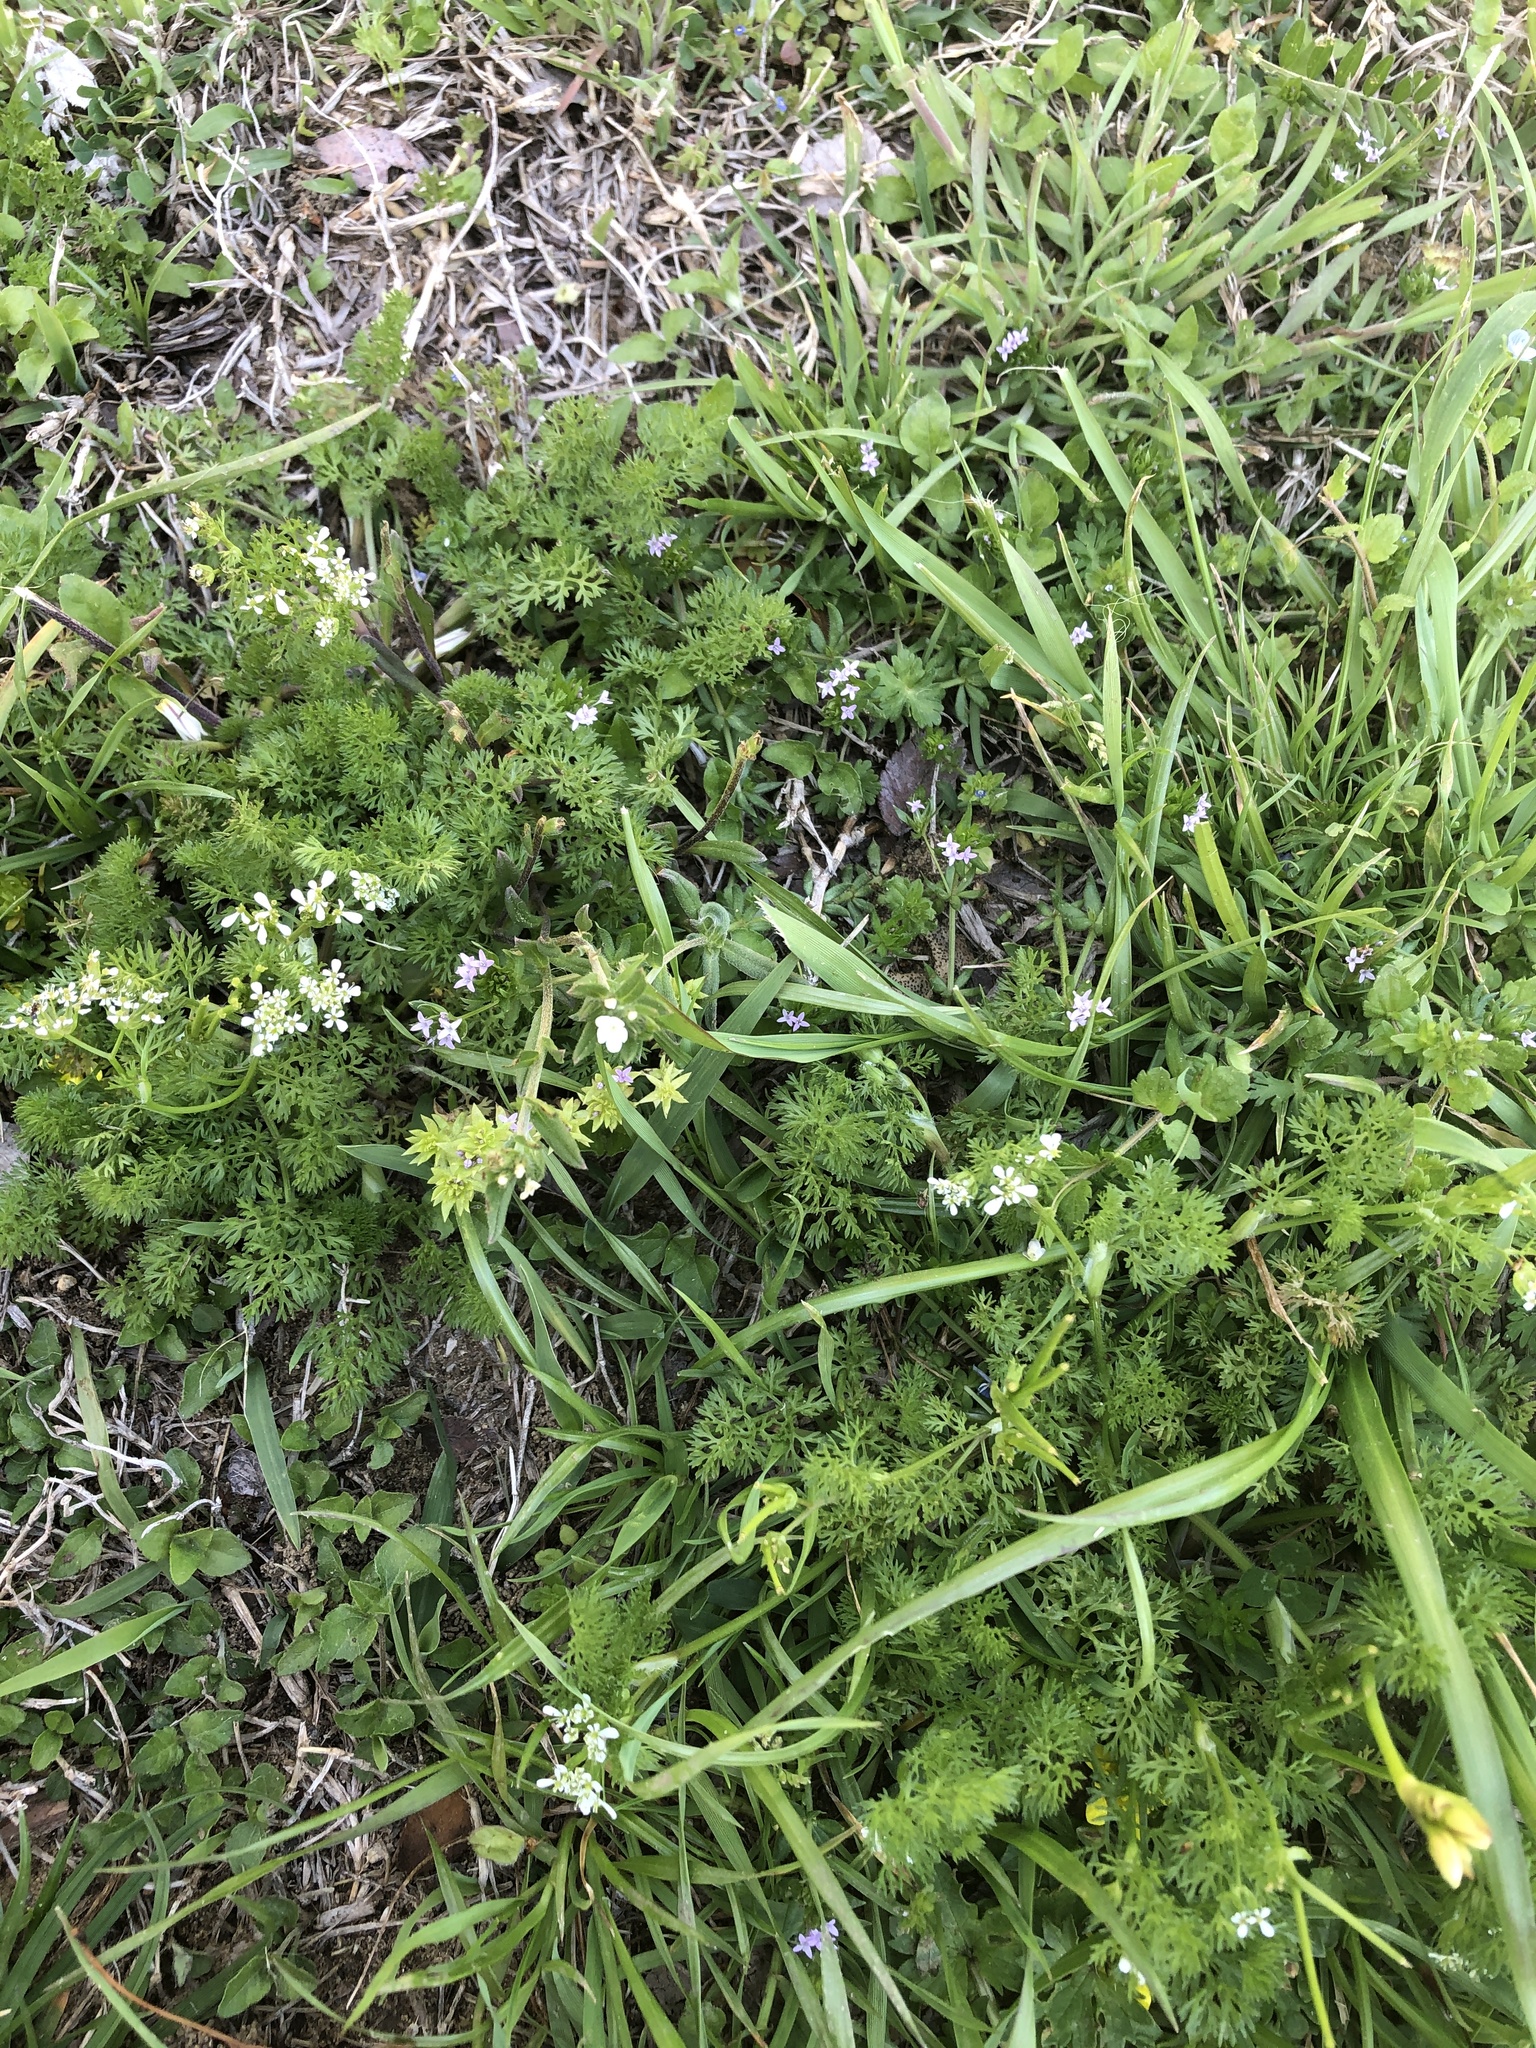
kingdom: Plantae
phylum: Tracheophyta
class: Magnoliopsida
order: Apiales
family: Apiaceae
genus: Scandix
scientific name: Scandix pecten-veneris
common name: Shepherd's-needle
